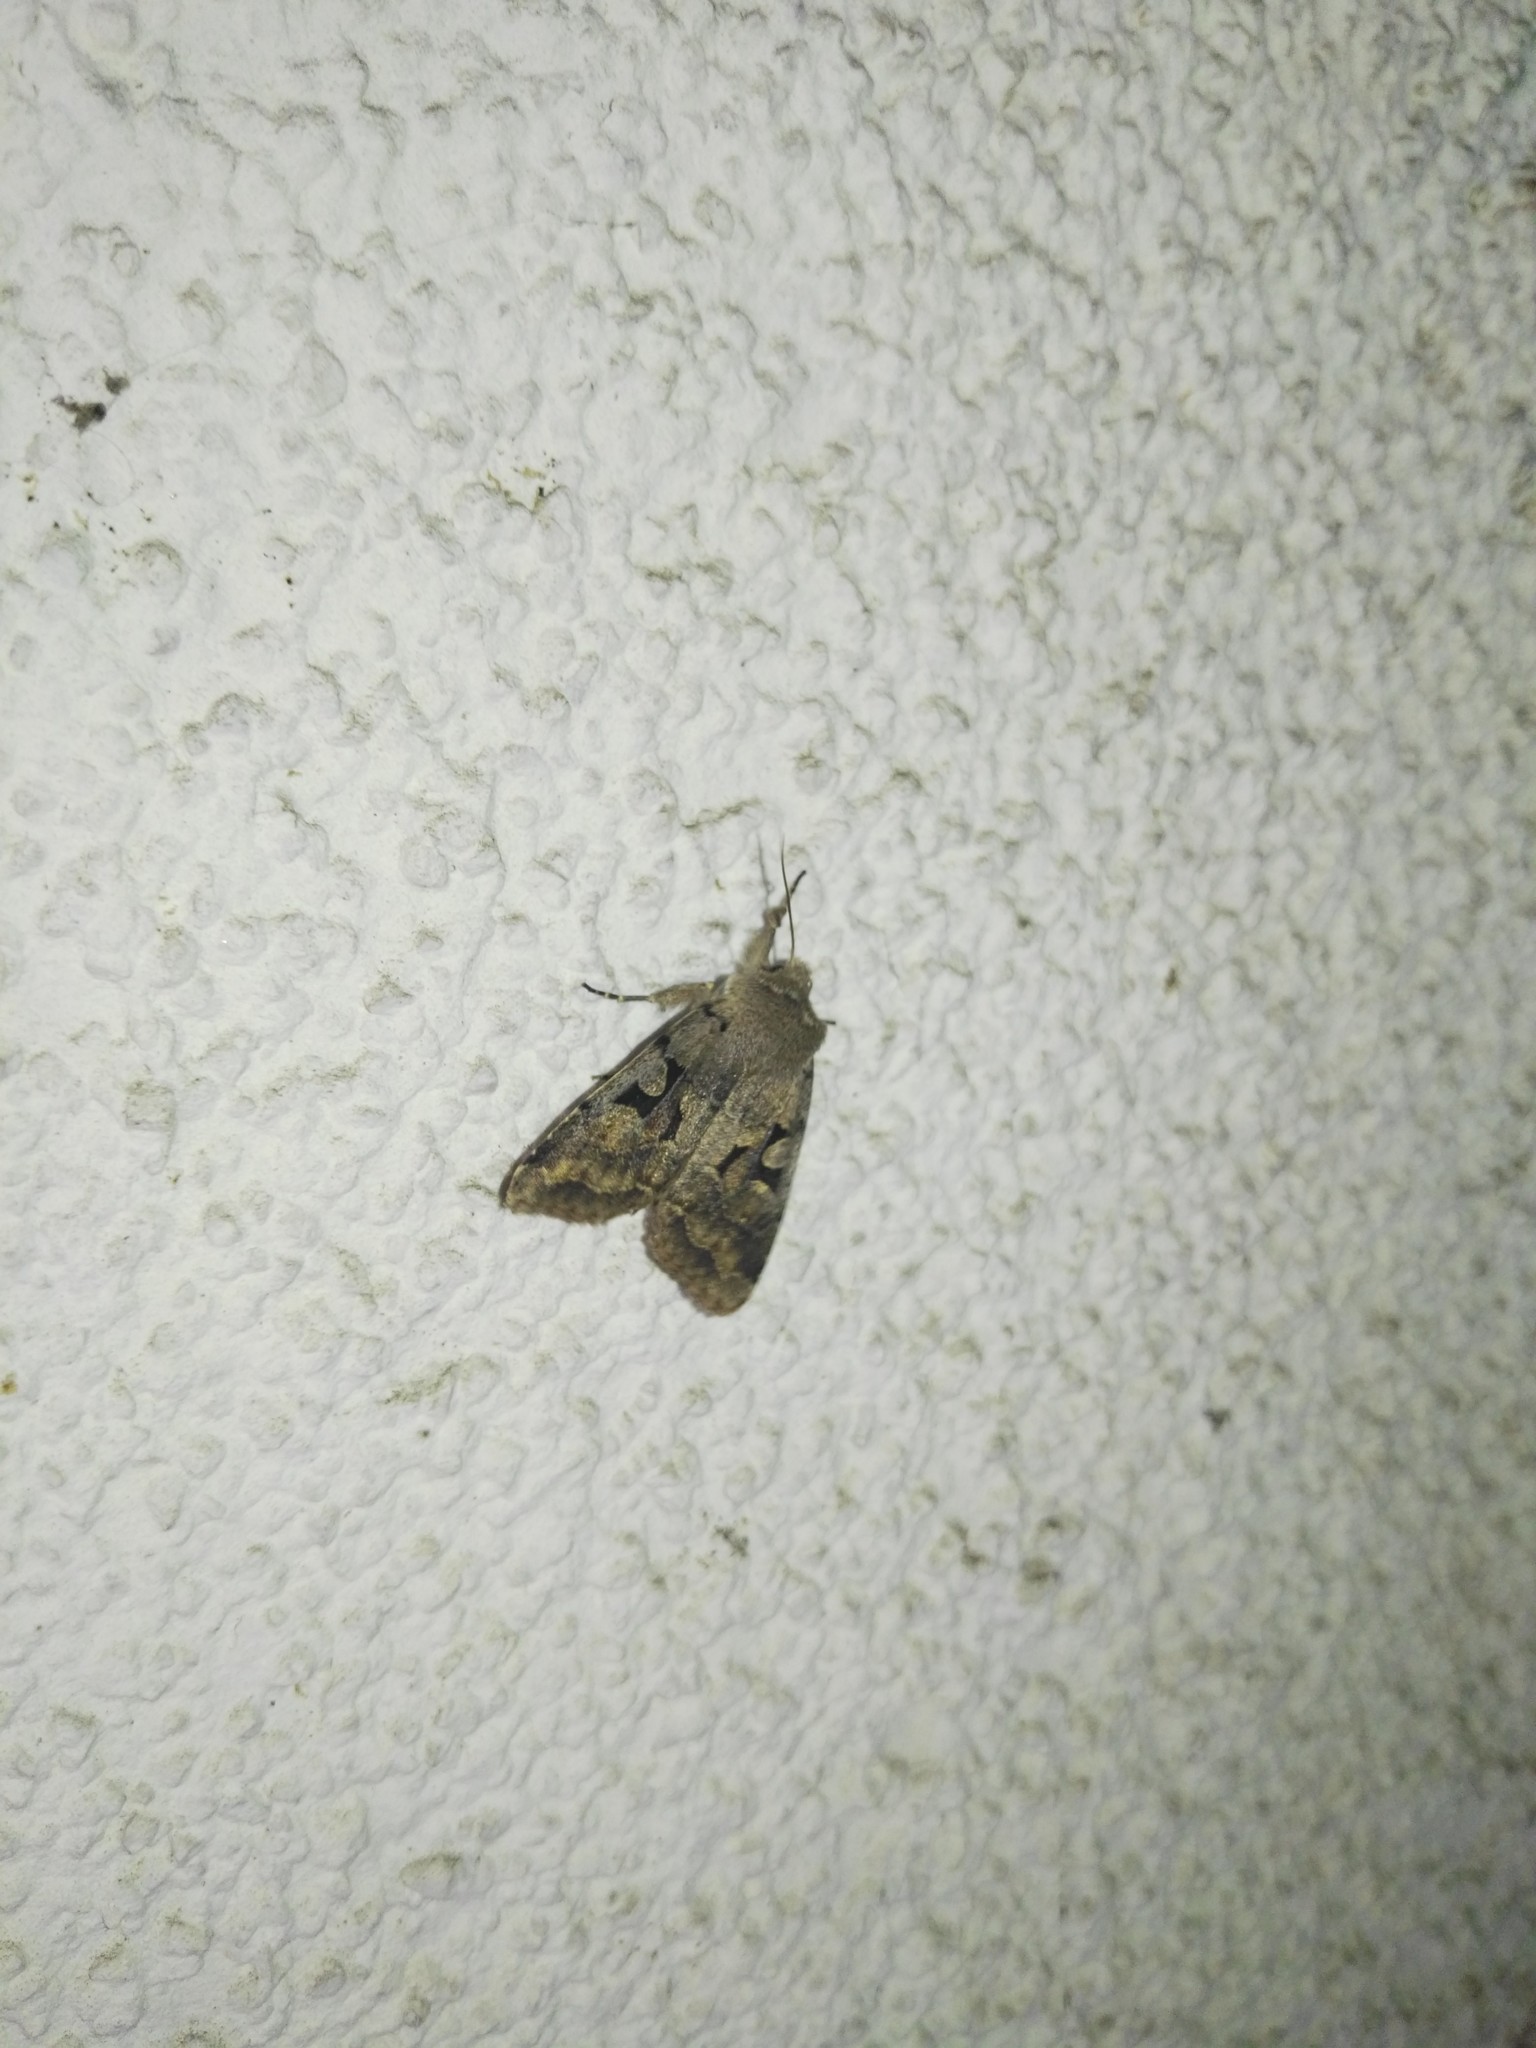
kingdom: Animalia
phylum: Arthropoda
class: Insecta
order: Lepidoptera
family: Noctuidae
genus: Orthosia
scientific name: Orthosia gothica
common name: Hebrew character
